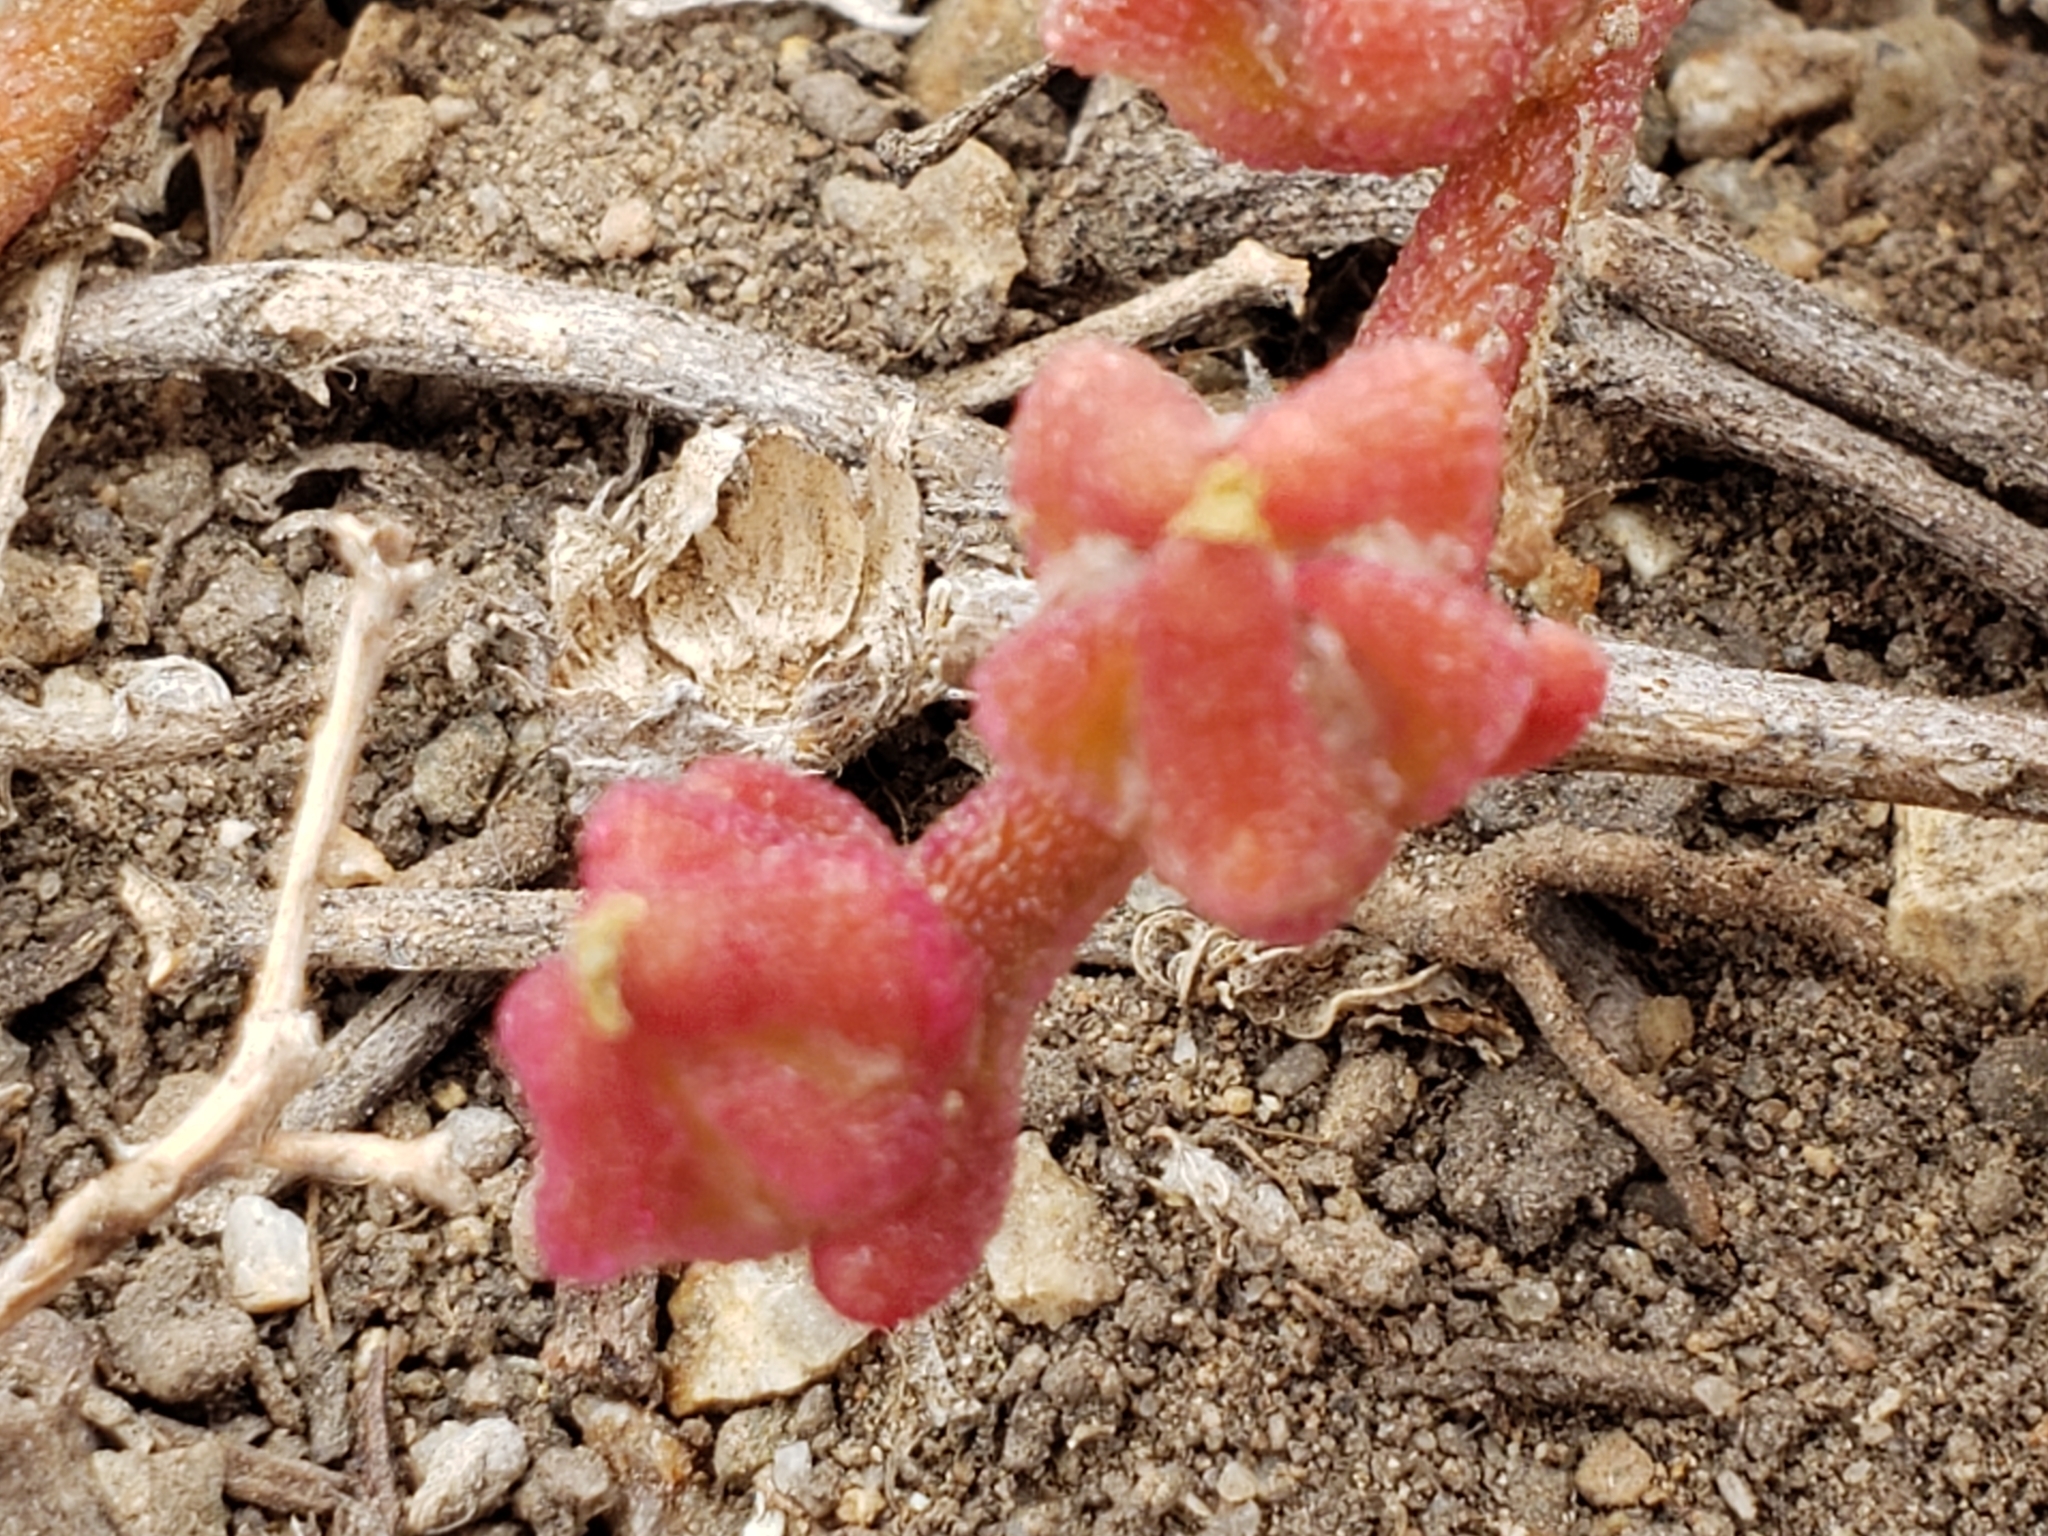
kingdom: Plantae
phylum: Tracheophyta
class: Magnoliopsida
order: Caryophyllales
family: Aizoaceae
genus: Mesembryanthemum
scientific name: Mesembryanthemum nodiflorum
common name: Slenderleaf iceplant
